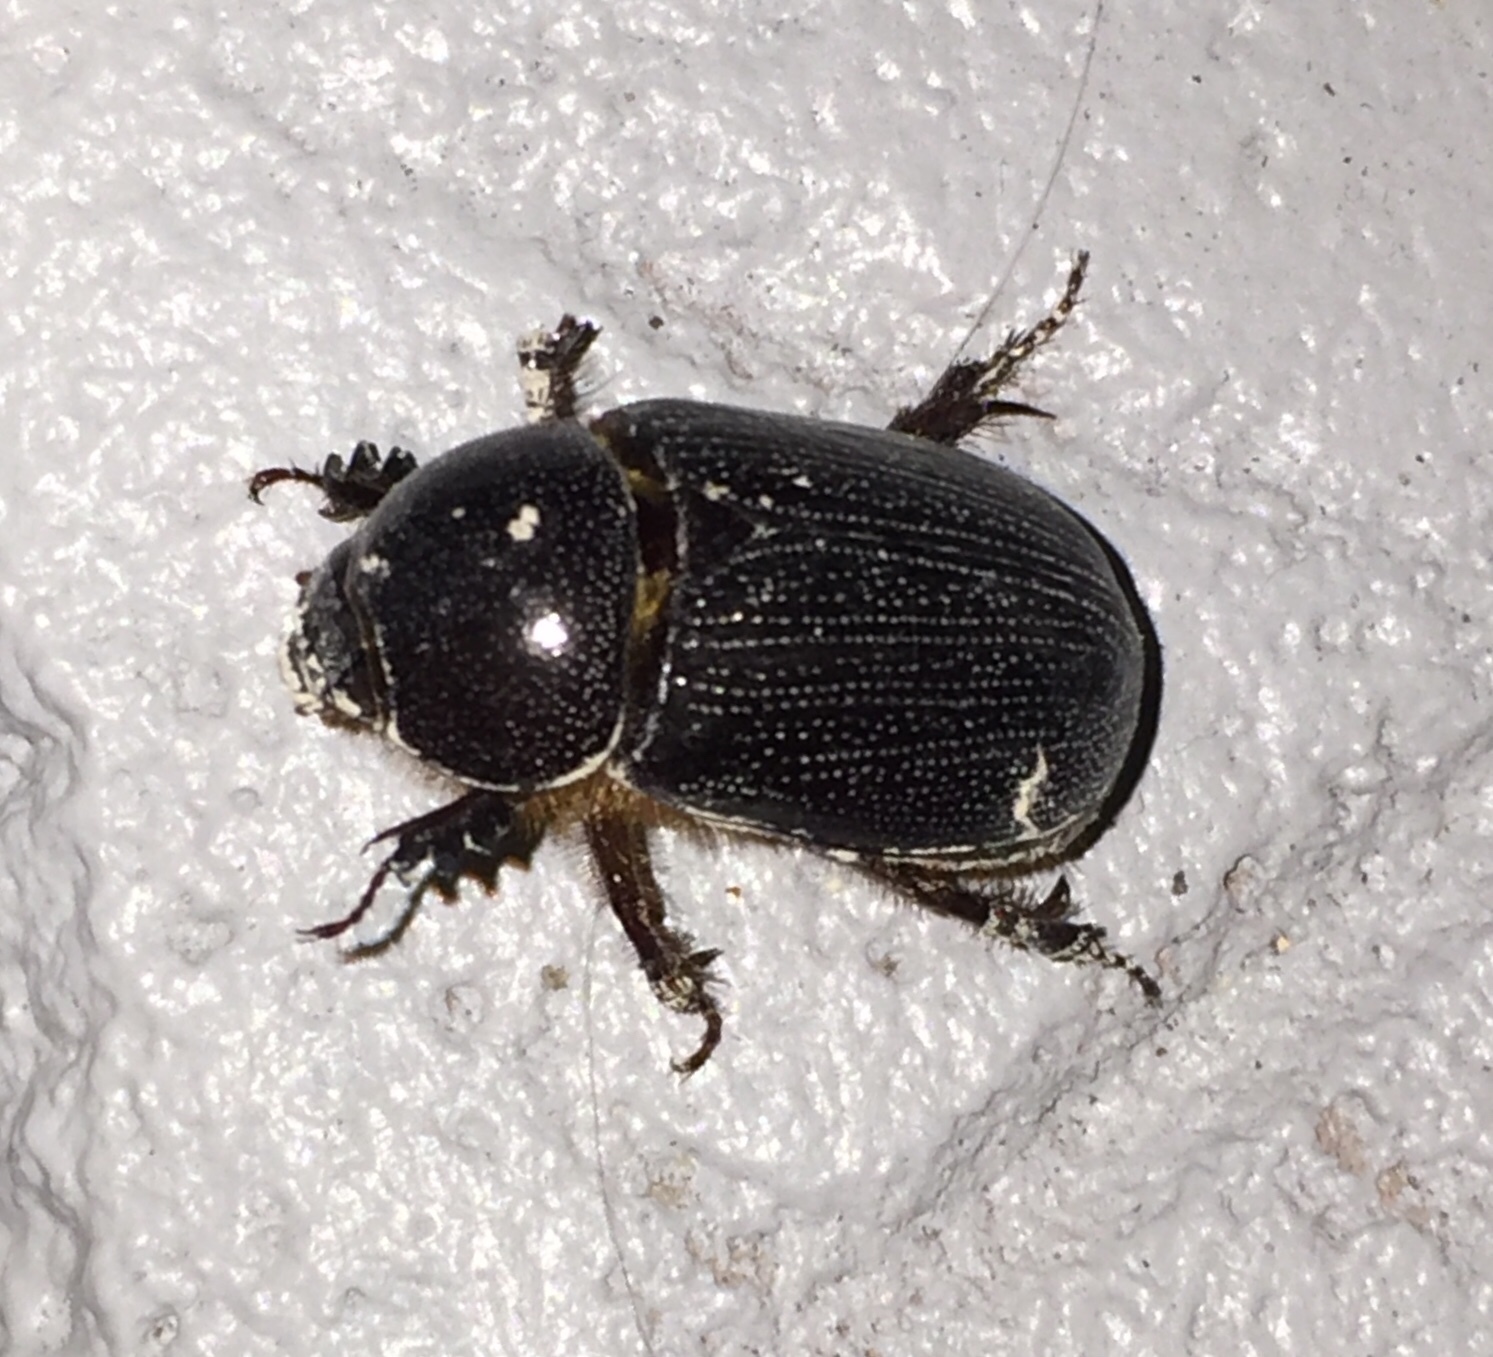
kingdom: Animalia
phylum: Arthropoda
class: Insecta
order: Coleoptera
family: Scarabaeidae
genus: Ligyrus
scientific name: Ligyrus cuniculus
